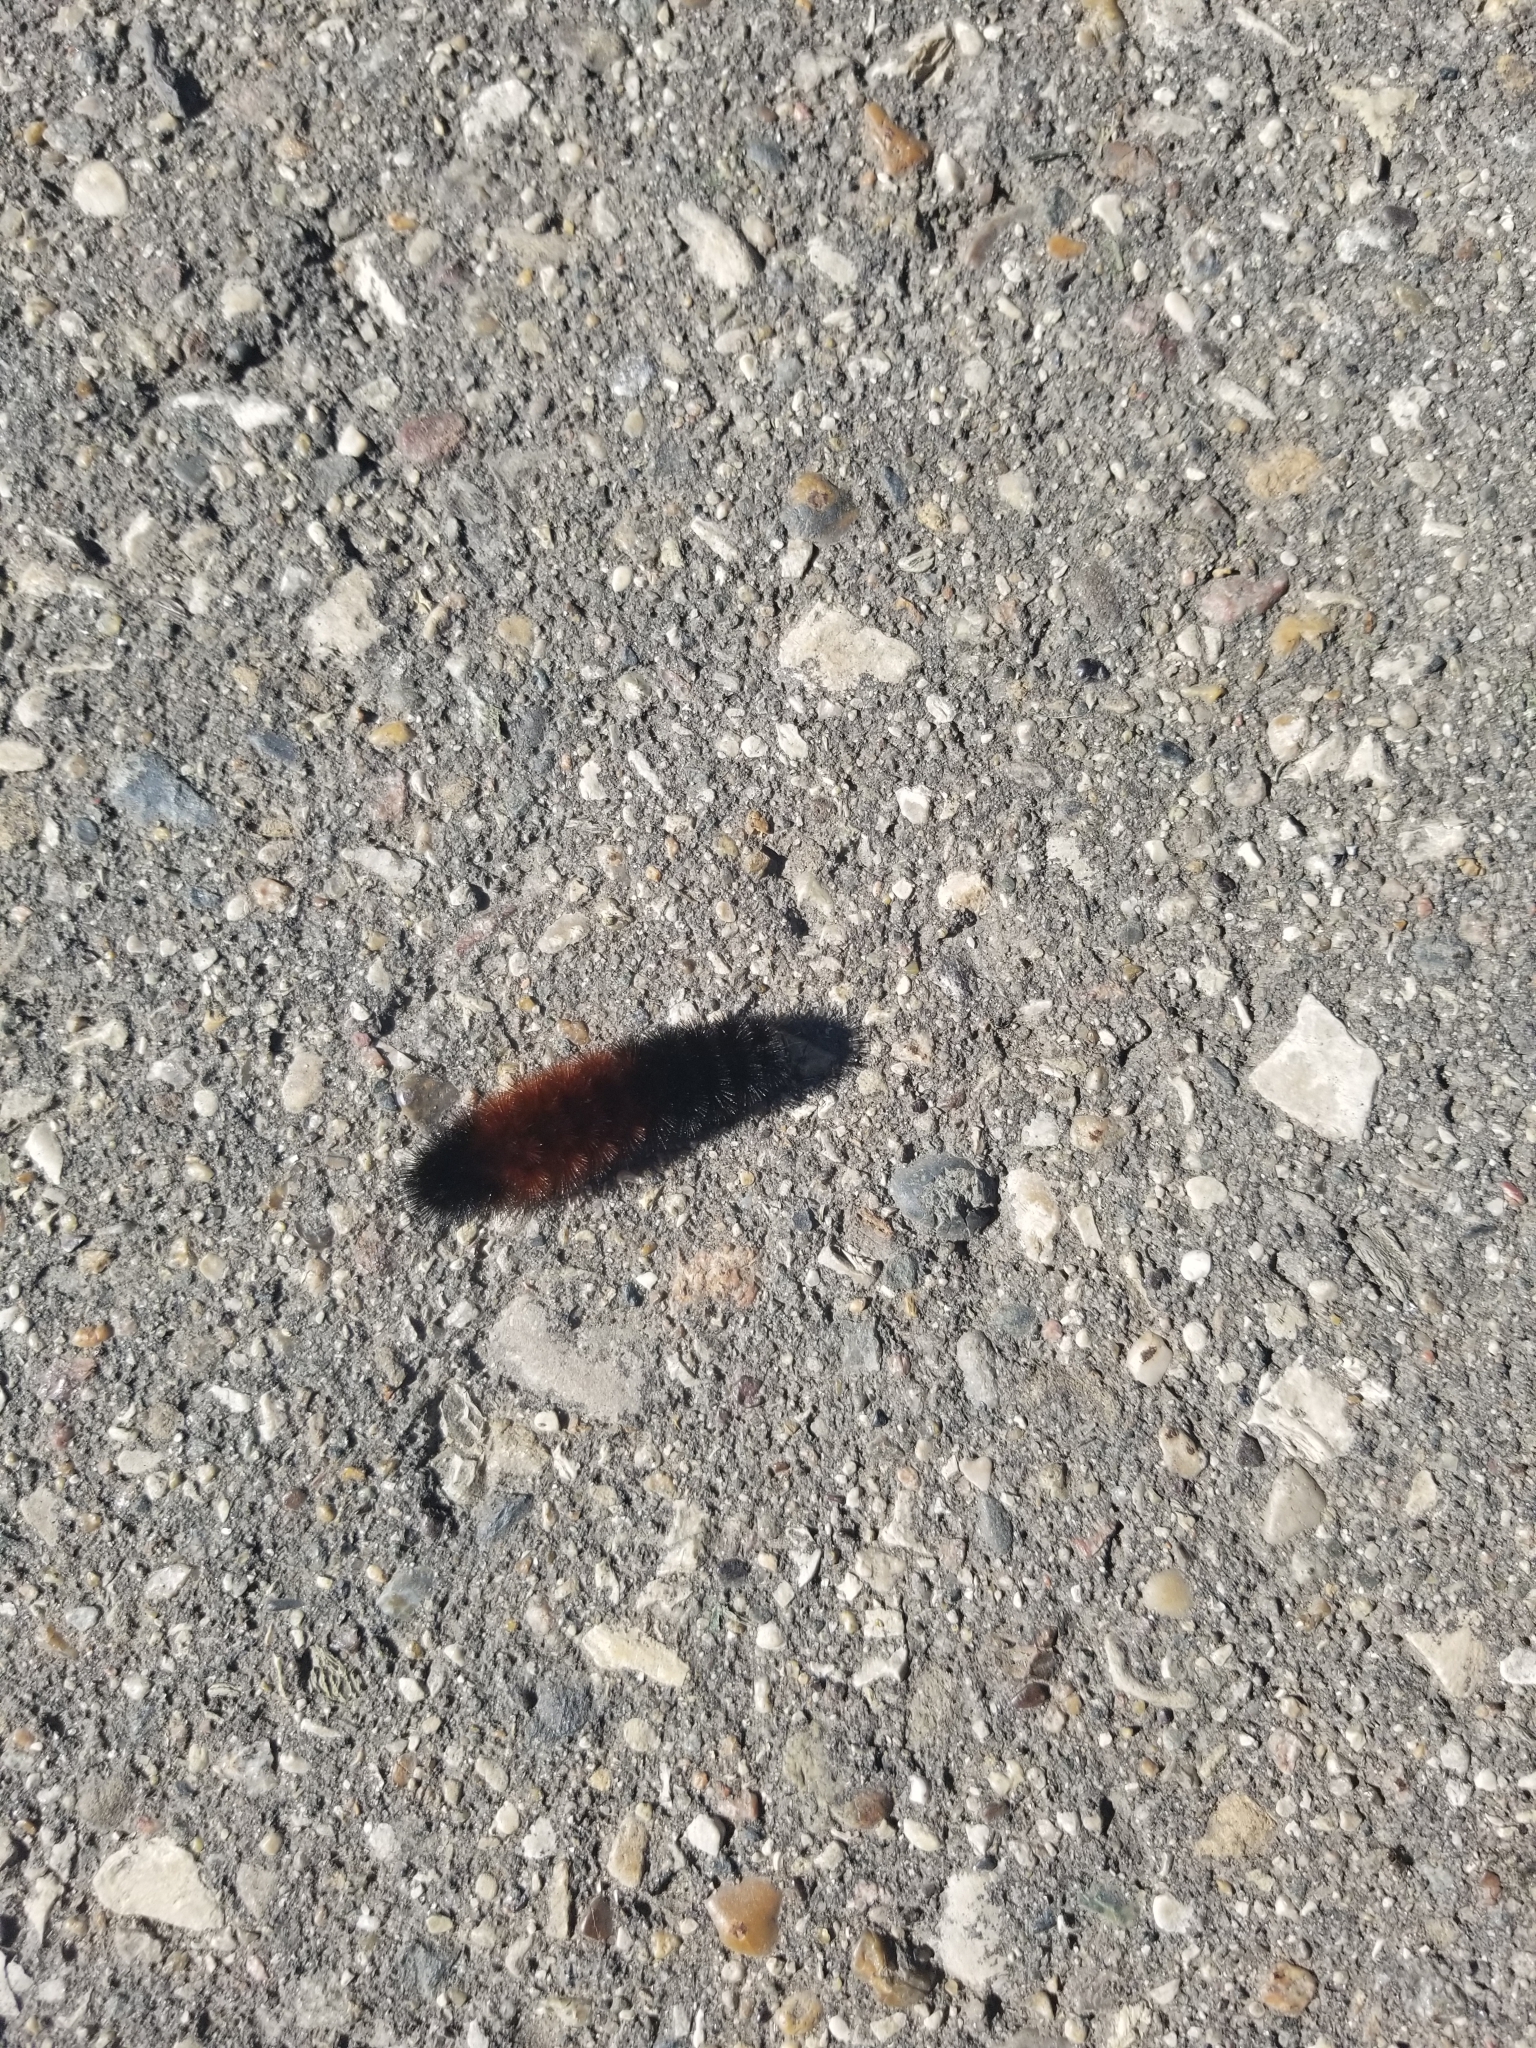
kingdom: Animalia
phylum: Arthropoda
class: Insecta
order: Lepidoptera
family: Erebidae
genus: Pyrrharctia
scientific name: Pyrrharctia isabella
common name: Isabella tiger moth
